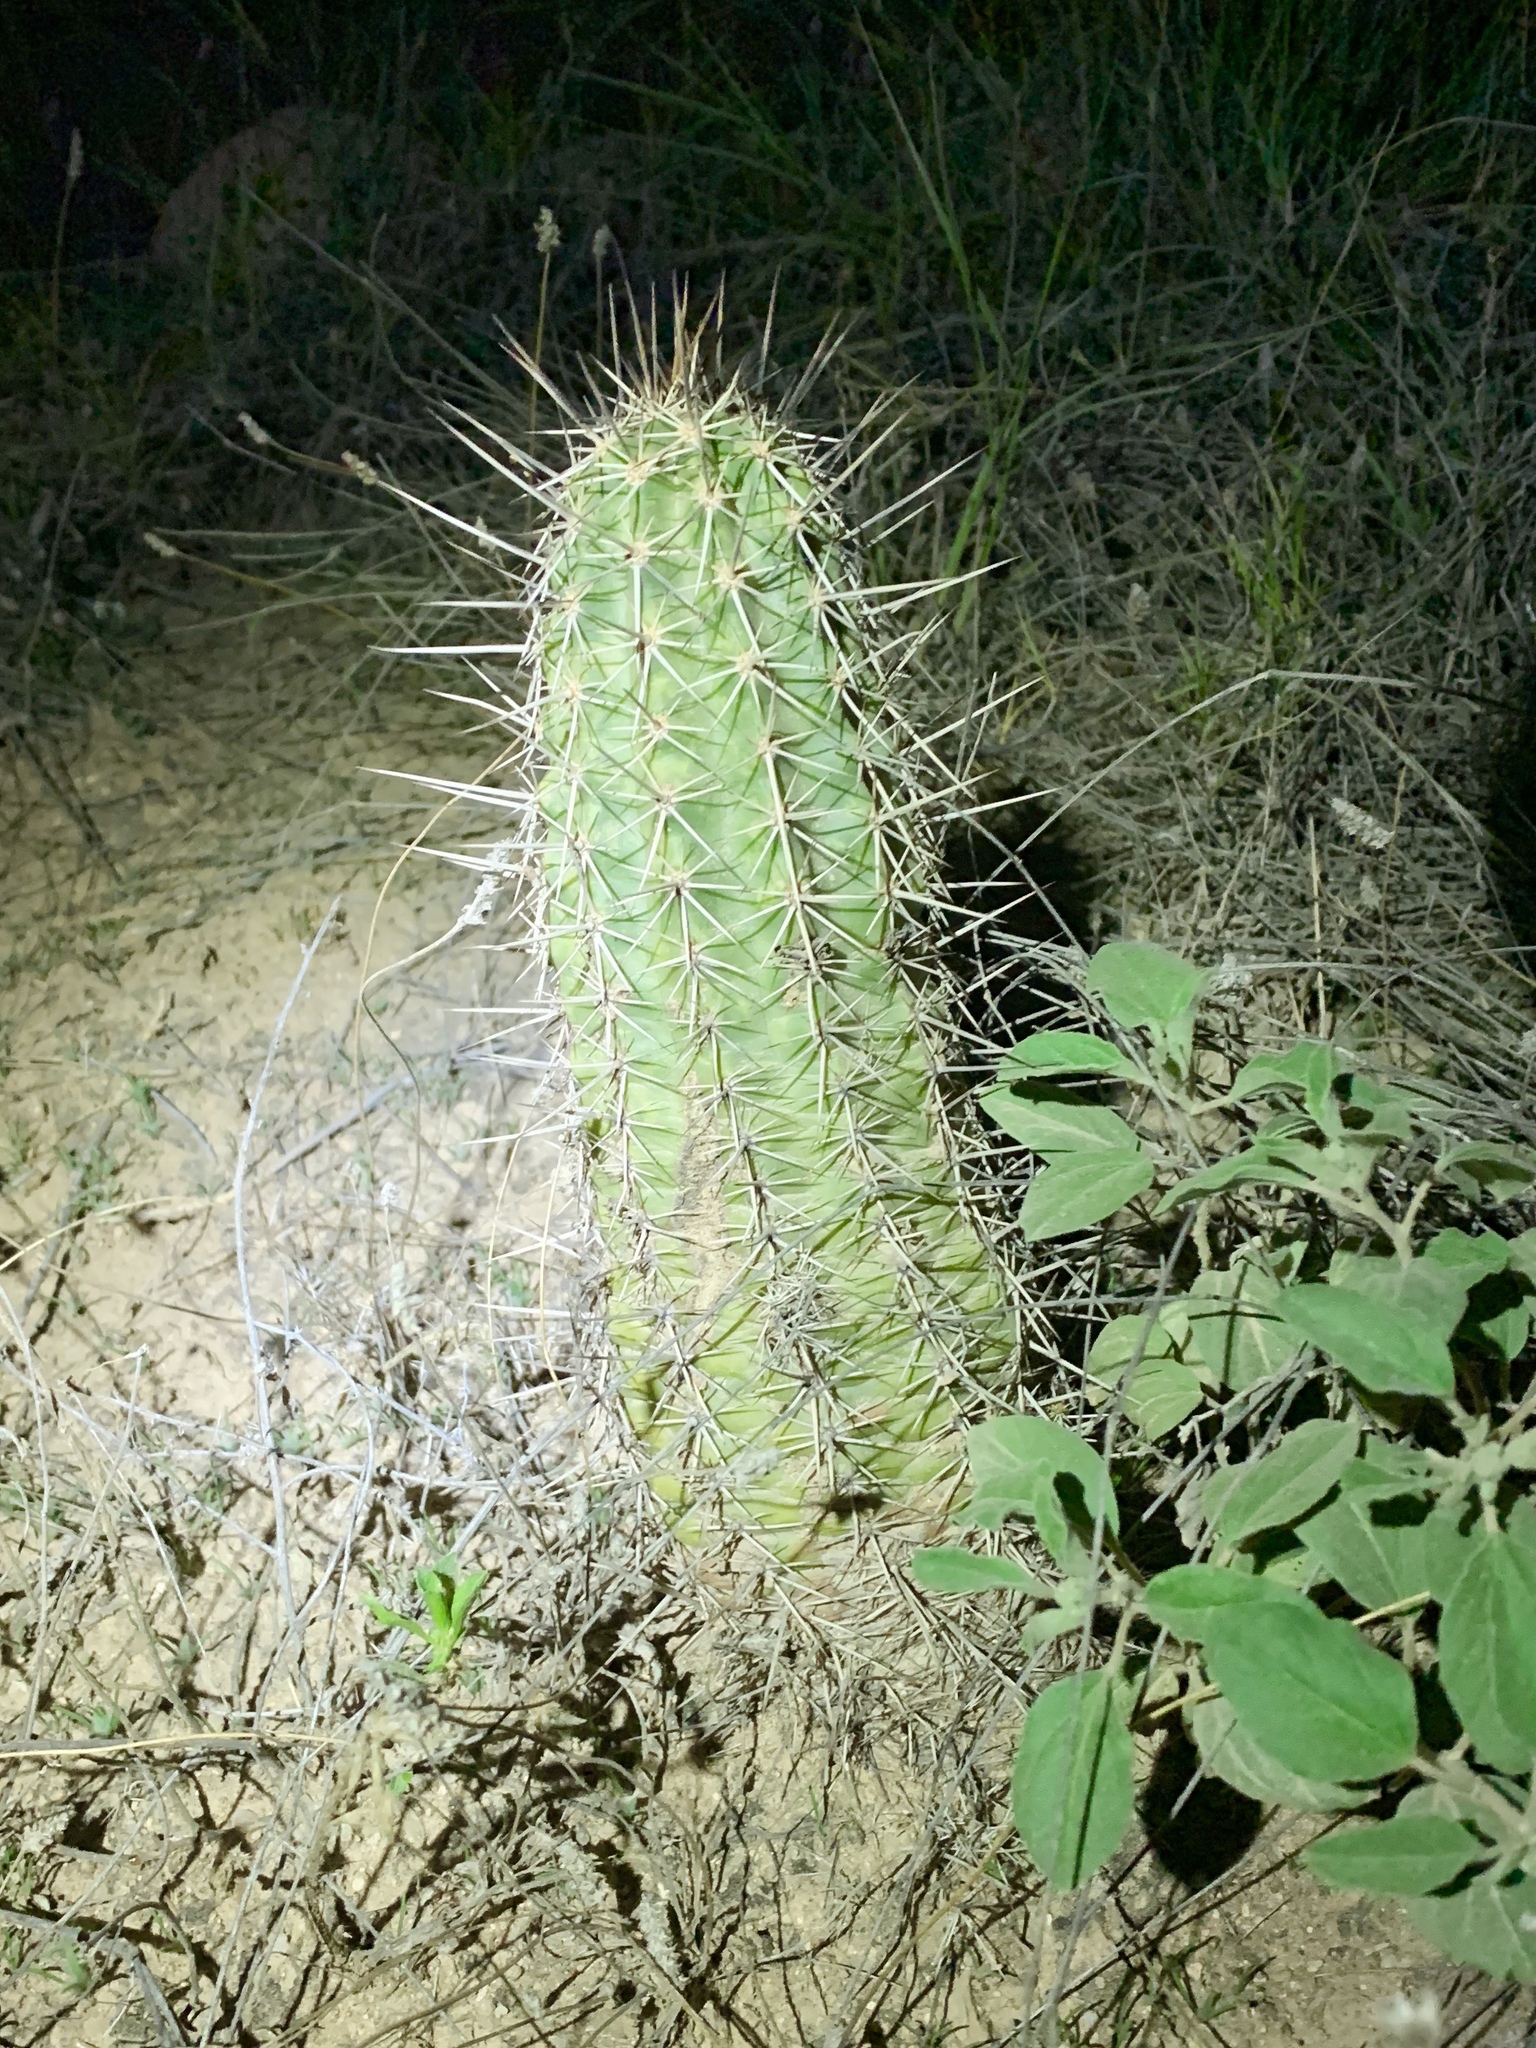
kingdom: Plantae
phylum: Tracheophyta
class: Magnoliopsida
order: Caryophyllales
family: Cactaceae
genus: Echinocereus
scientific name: Echinocereus fasciculatus
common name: Bundle hedgehog
